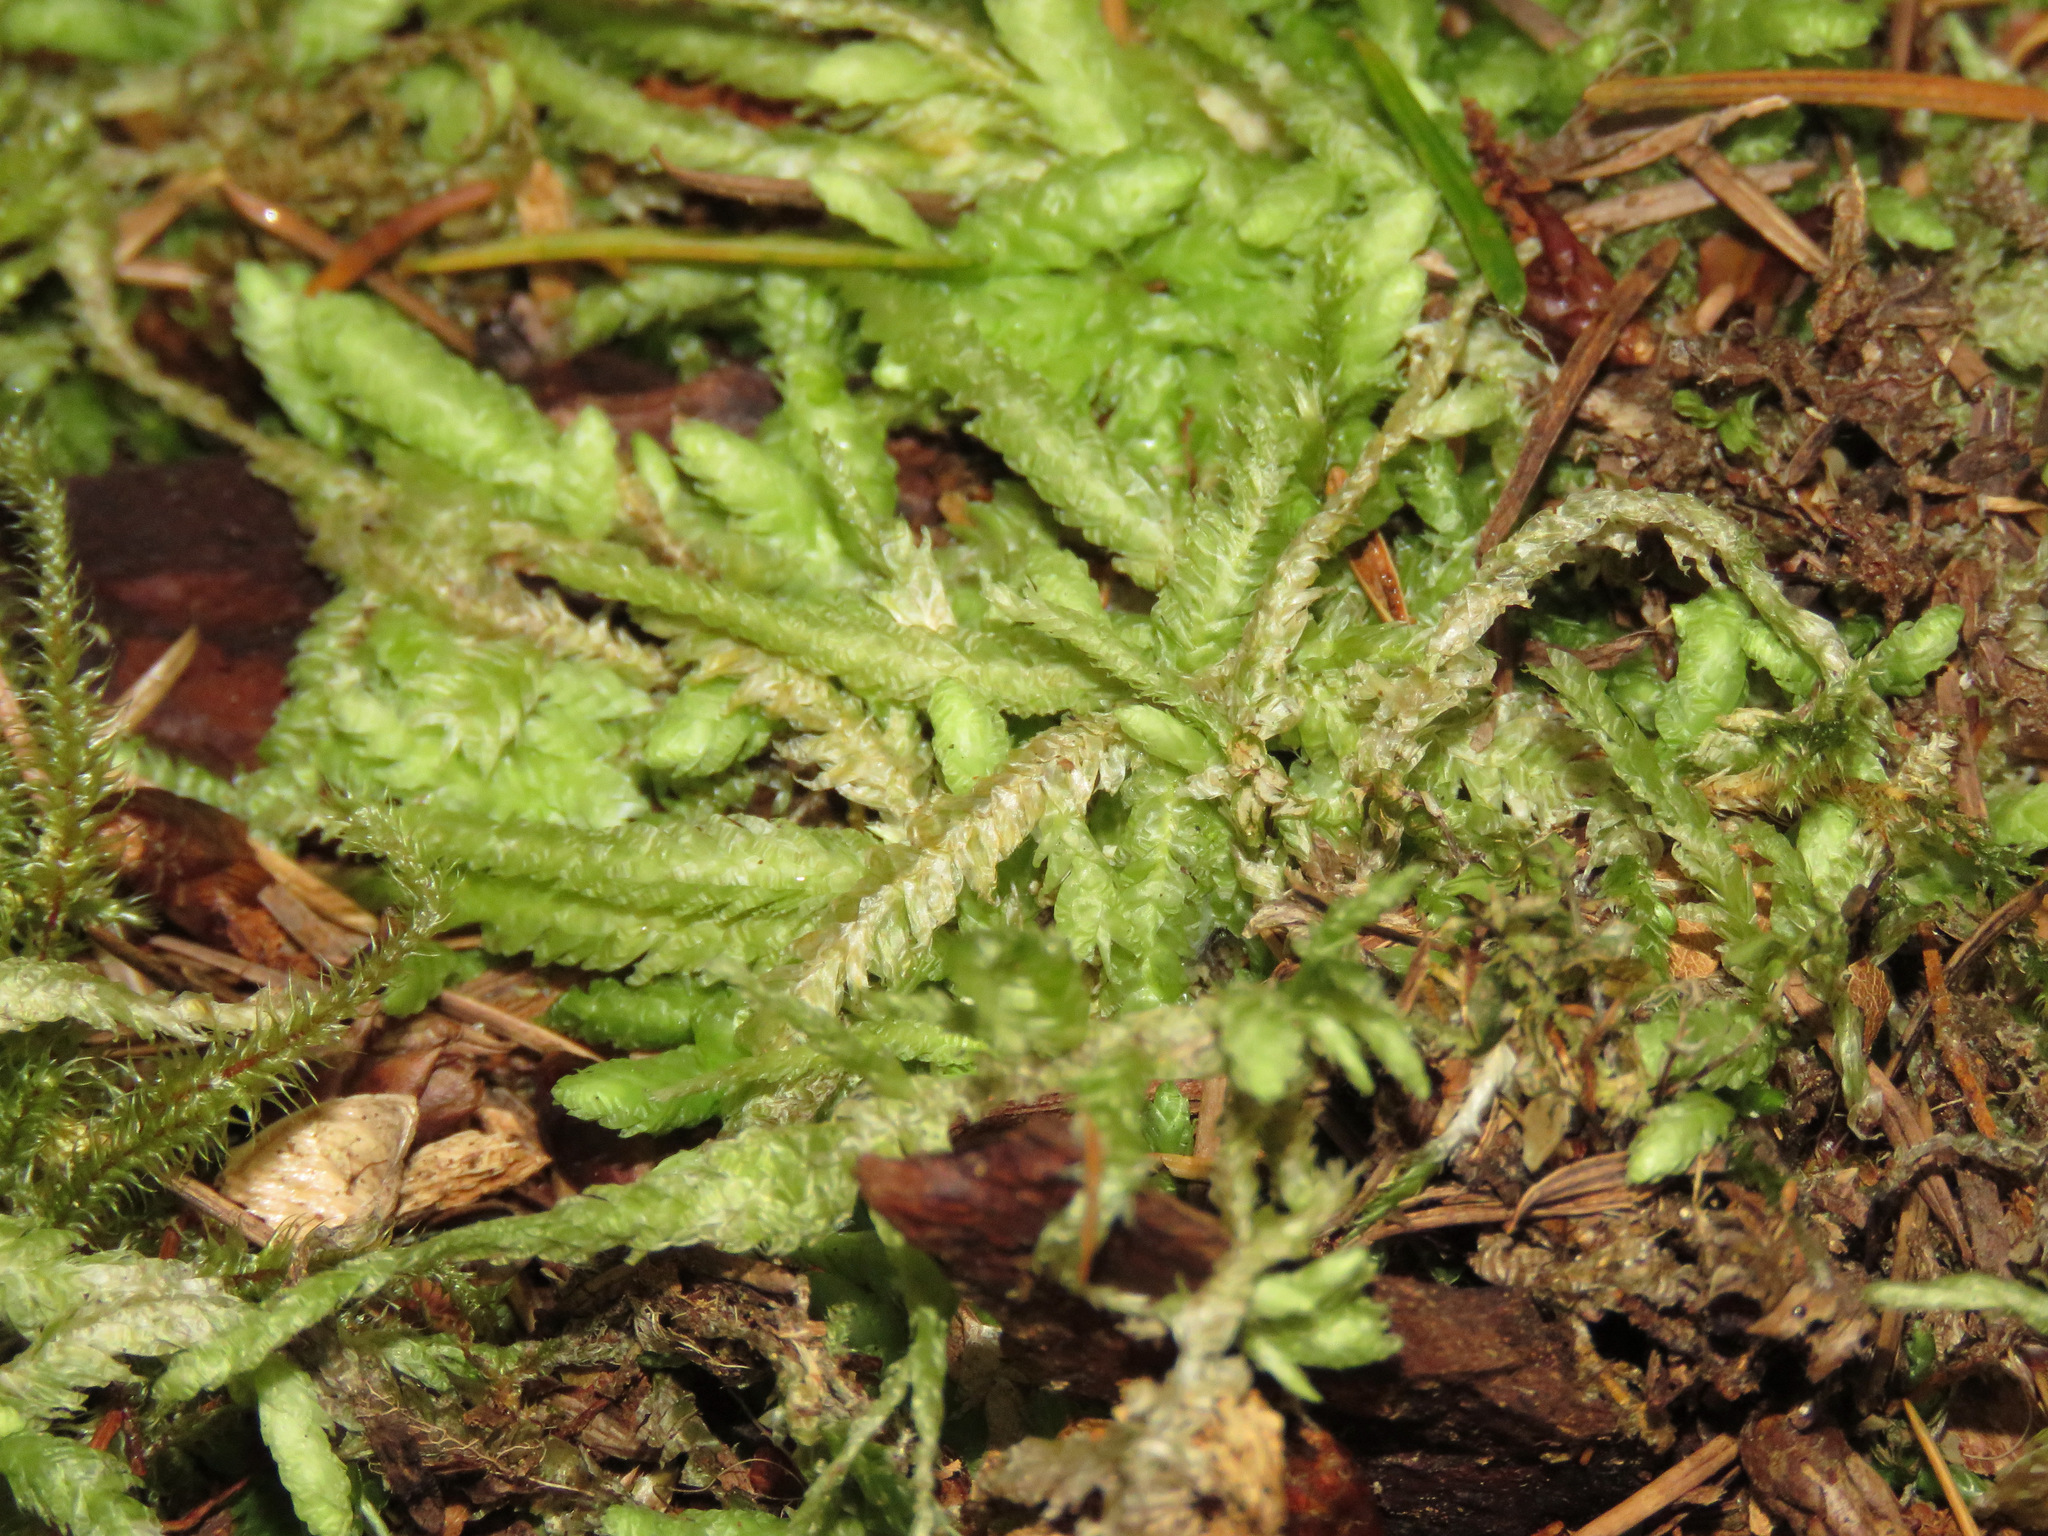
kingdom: Plantae
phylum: Bryophyta
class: Bryopsida
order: Hypnales
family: Plagiotheciaceae
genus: Plagiothecium
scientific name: Plagiothecium undulatum
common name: Waved silk-moss
